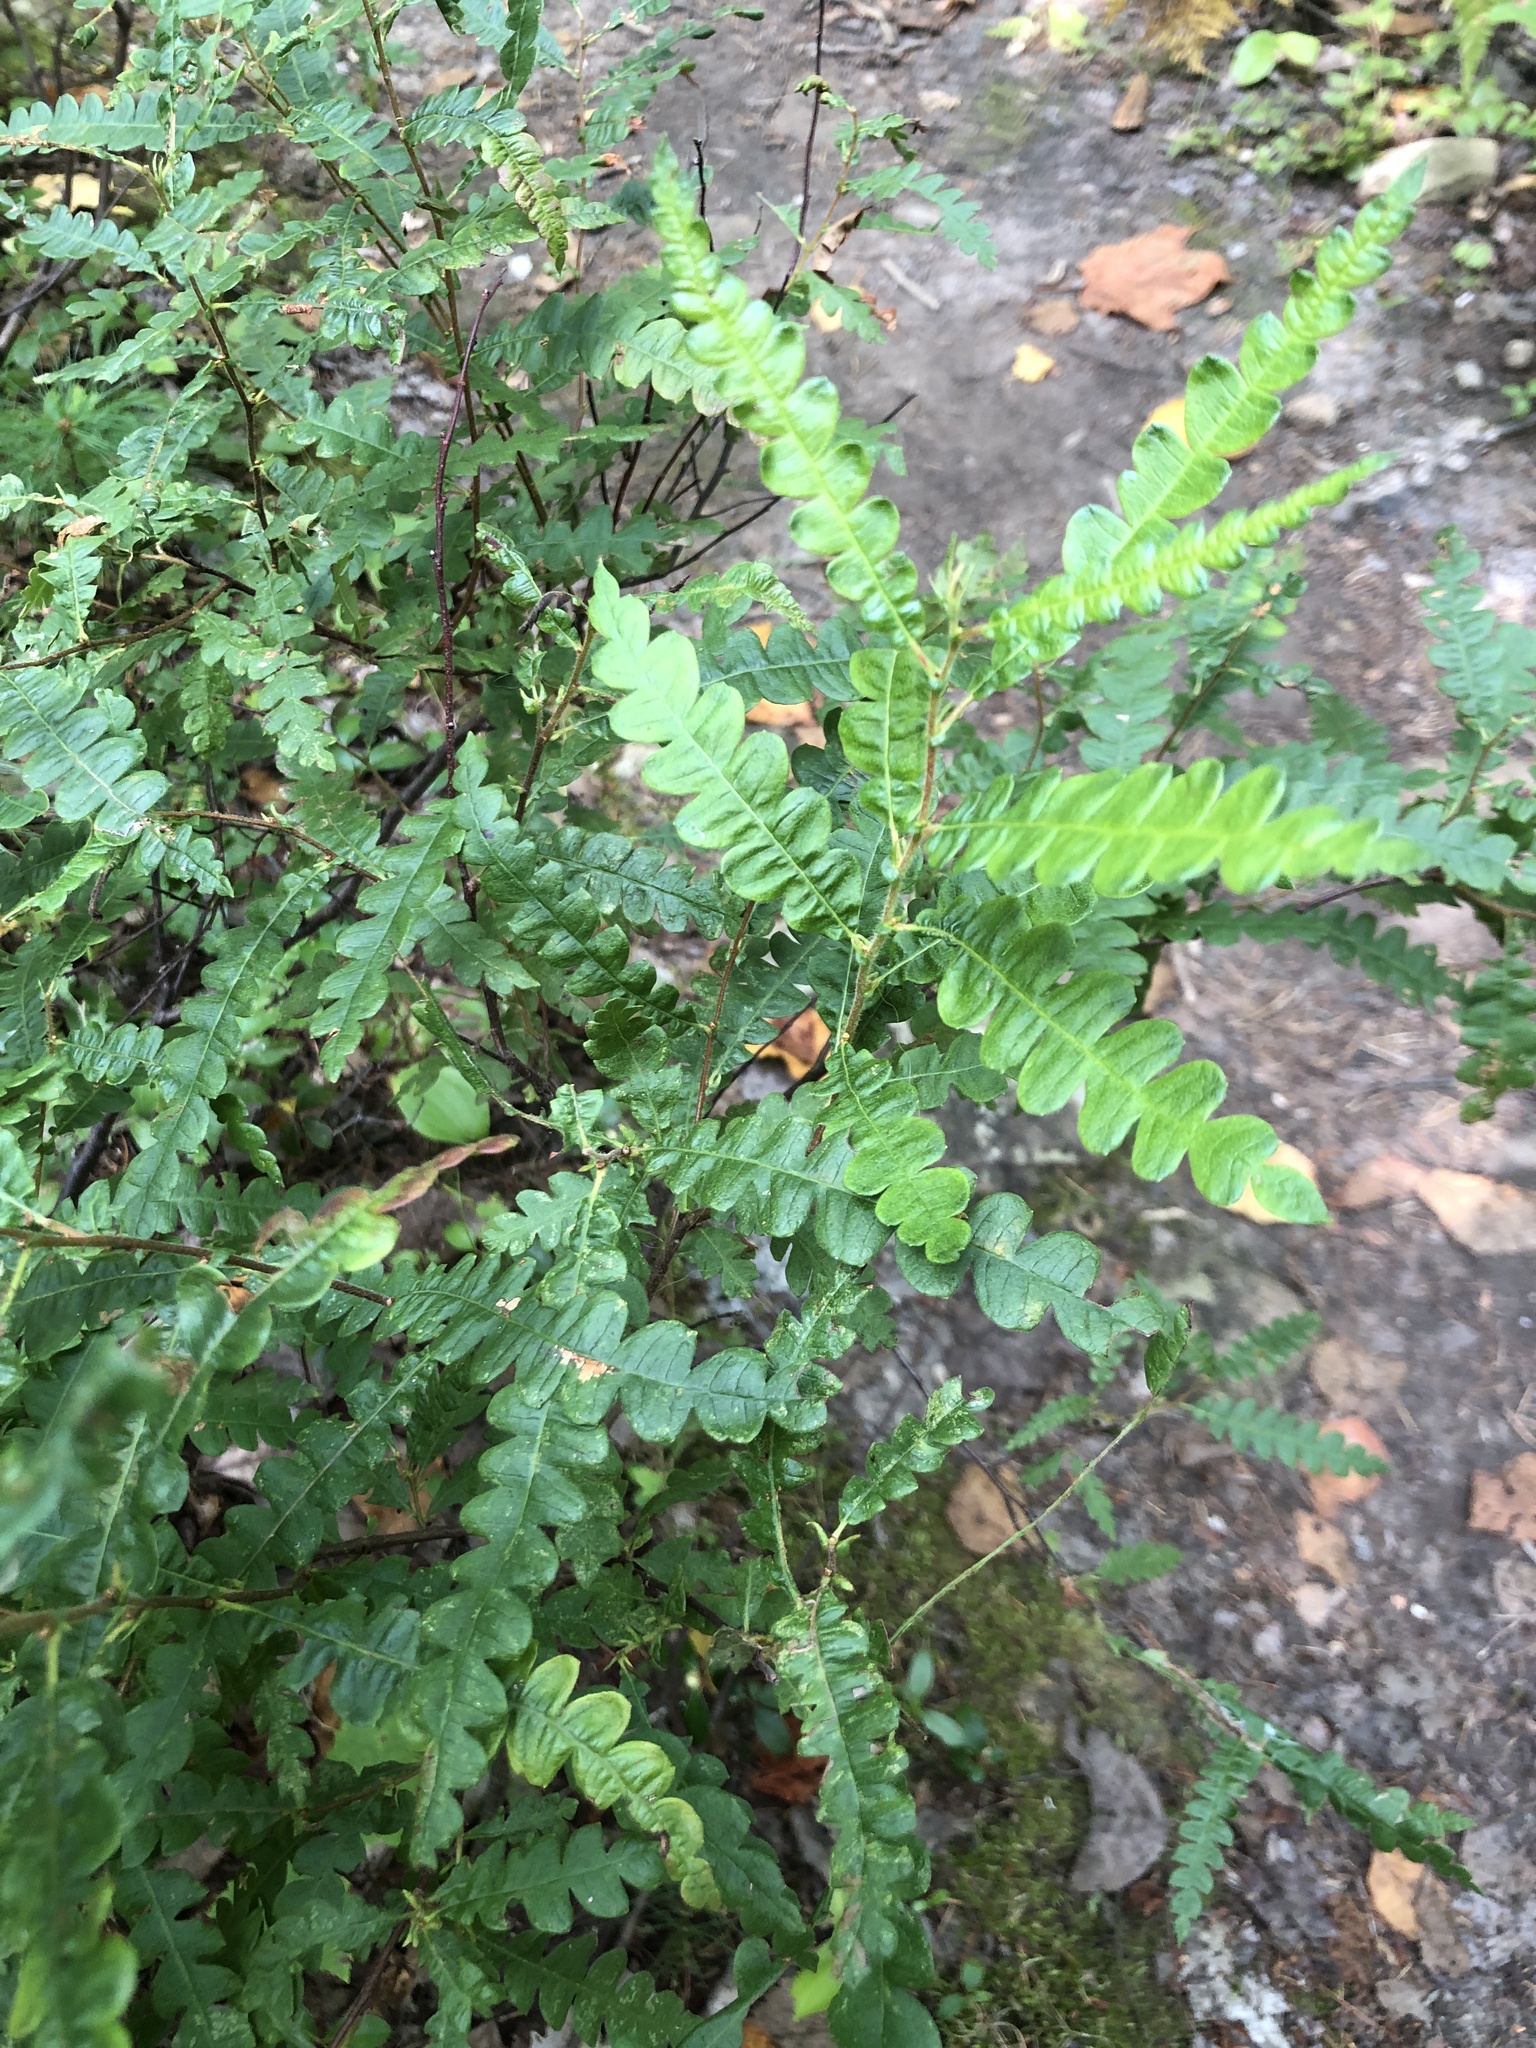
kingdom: Plantae
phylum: Tracheophyta
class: Magnoliopsida
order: Fagales
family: Myricaceae
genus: Comptonia
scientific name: Comptonia peregrina
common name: Sweet-fern
